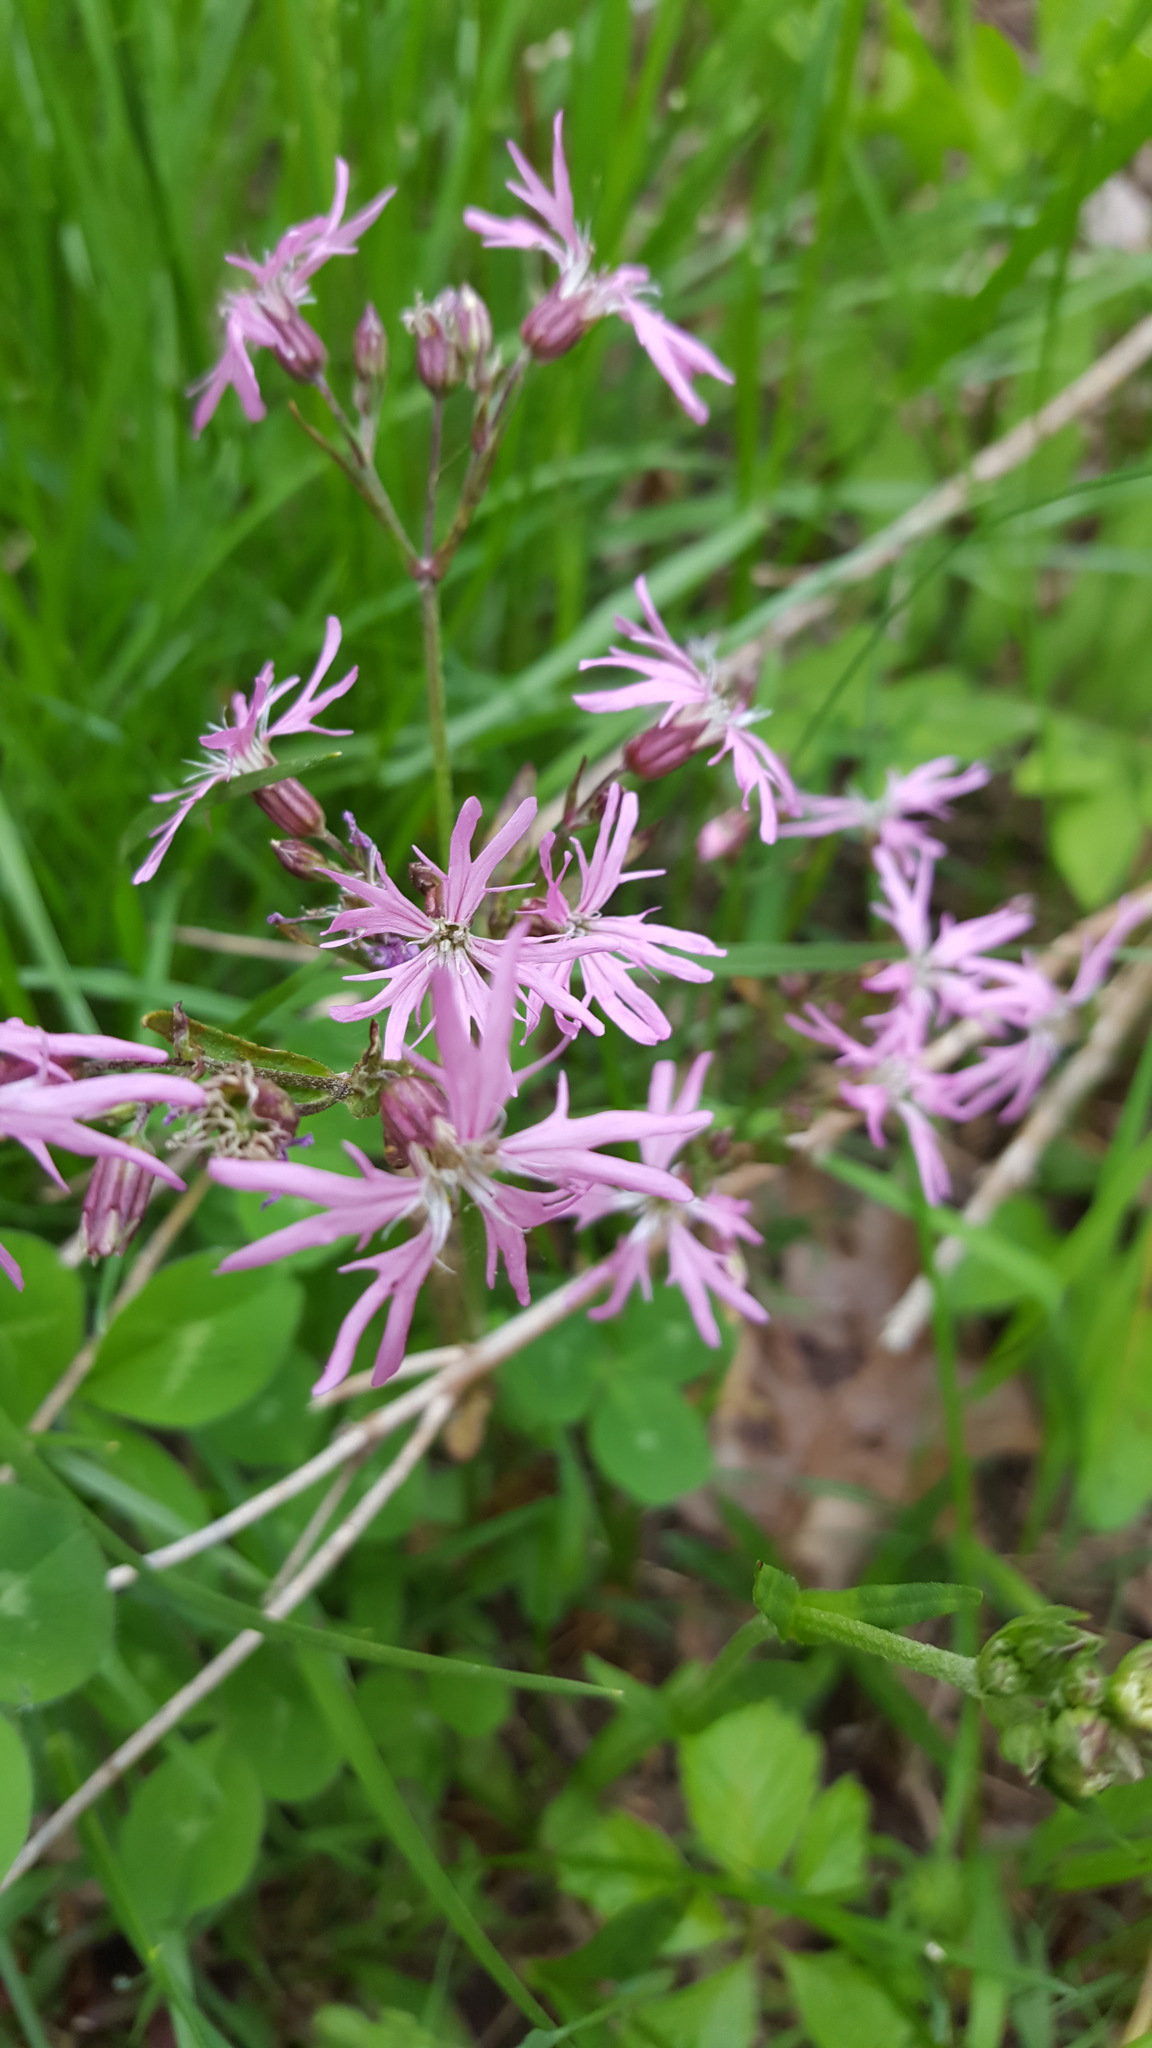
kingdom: Plantae
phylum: Tracheophyta
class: Magnoliopsida
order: Caryophyllales
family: Caryophyllaceae
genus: Silene
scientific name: Silene flos-cuculi
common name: Ragged-robin
